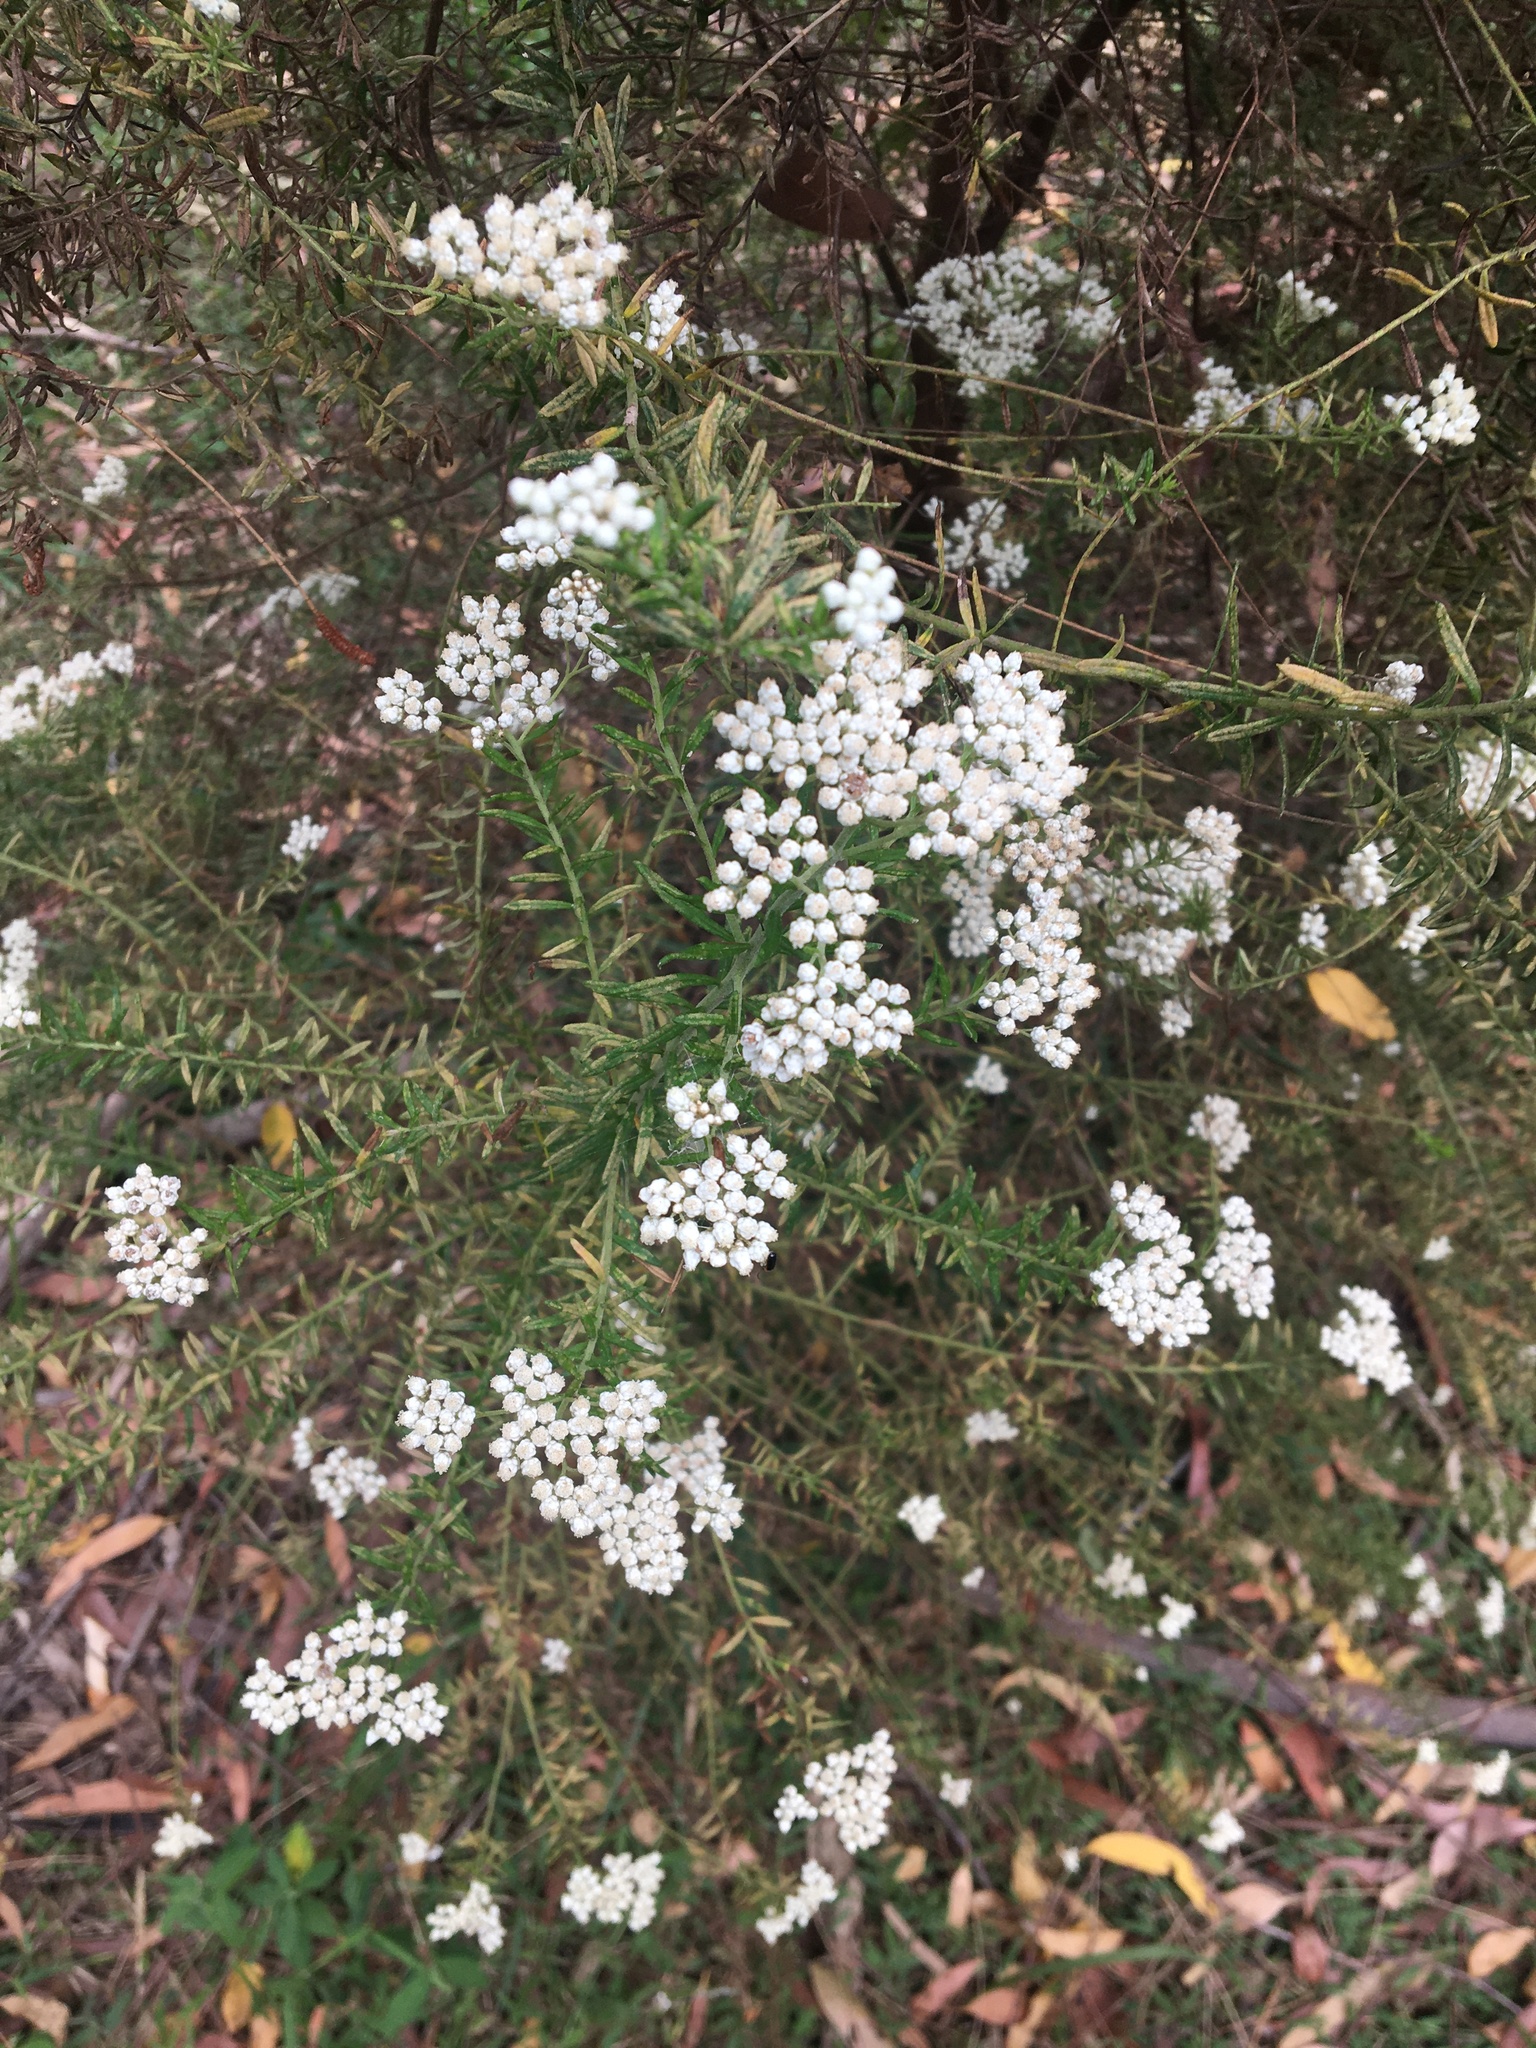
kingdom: Plantae
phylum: Tracheophyta
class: Magnoliopsida
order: Asterales
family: Asteraceae
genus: Ozothamnus
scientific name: Ozothamnus diosmifolius
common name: White-dogwood
